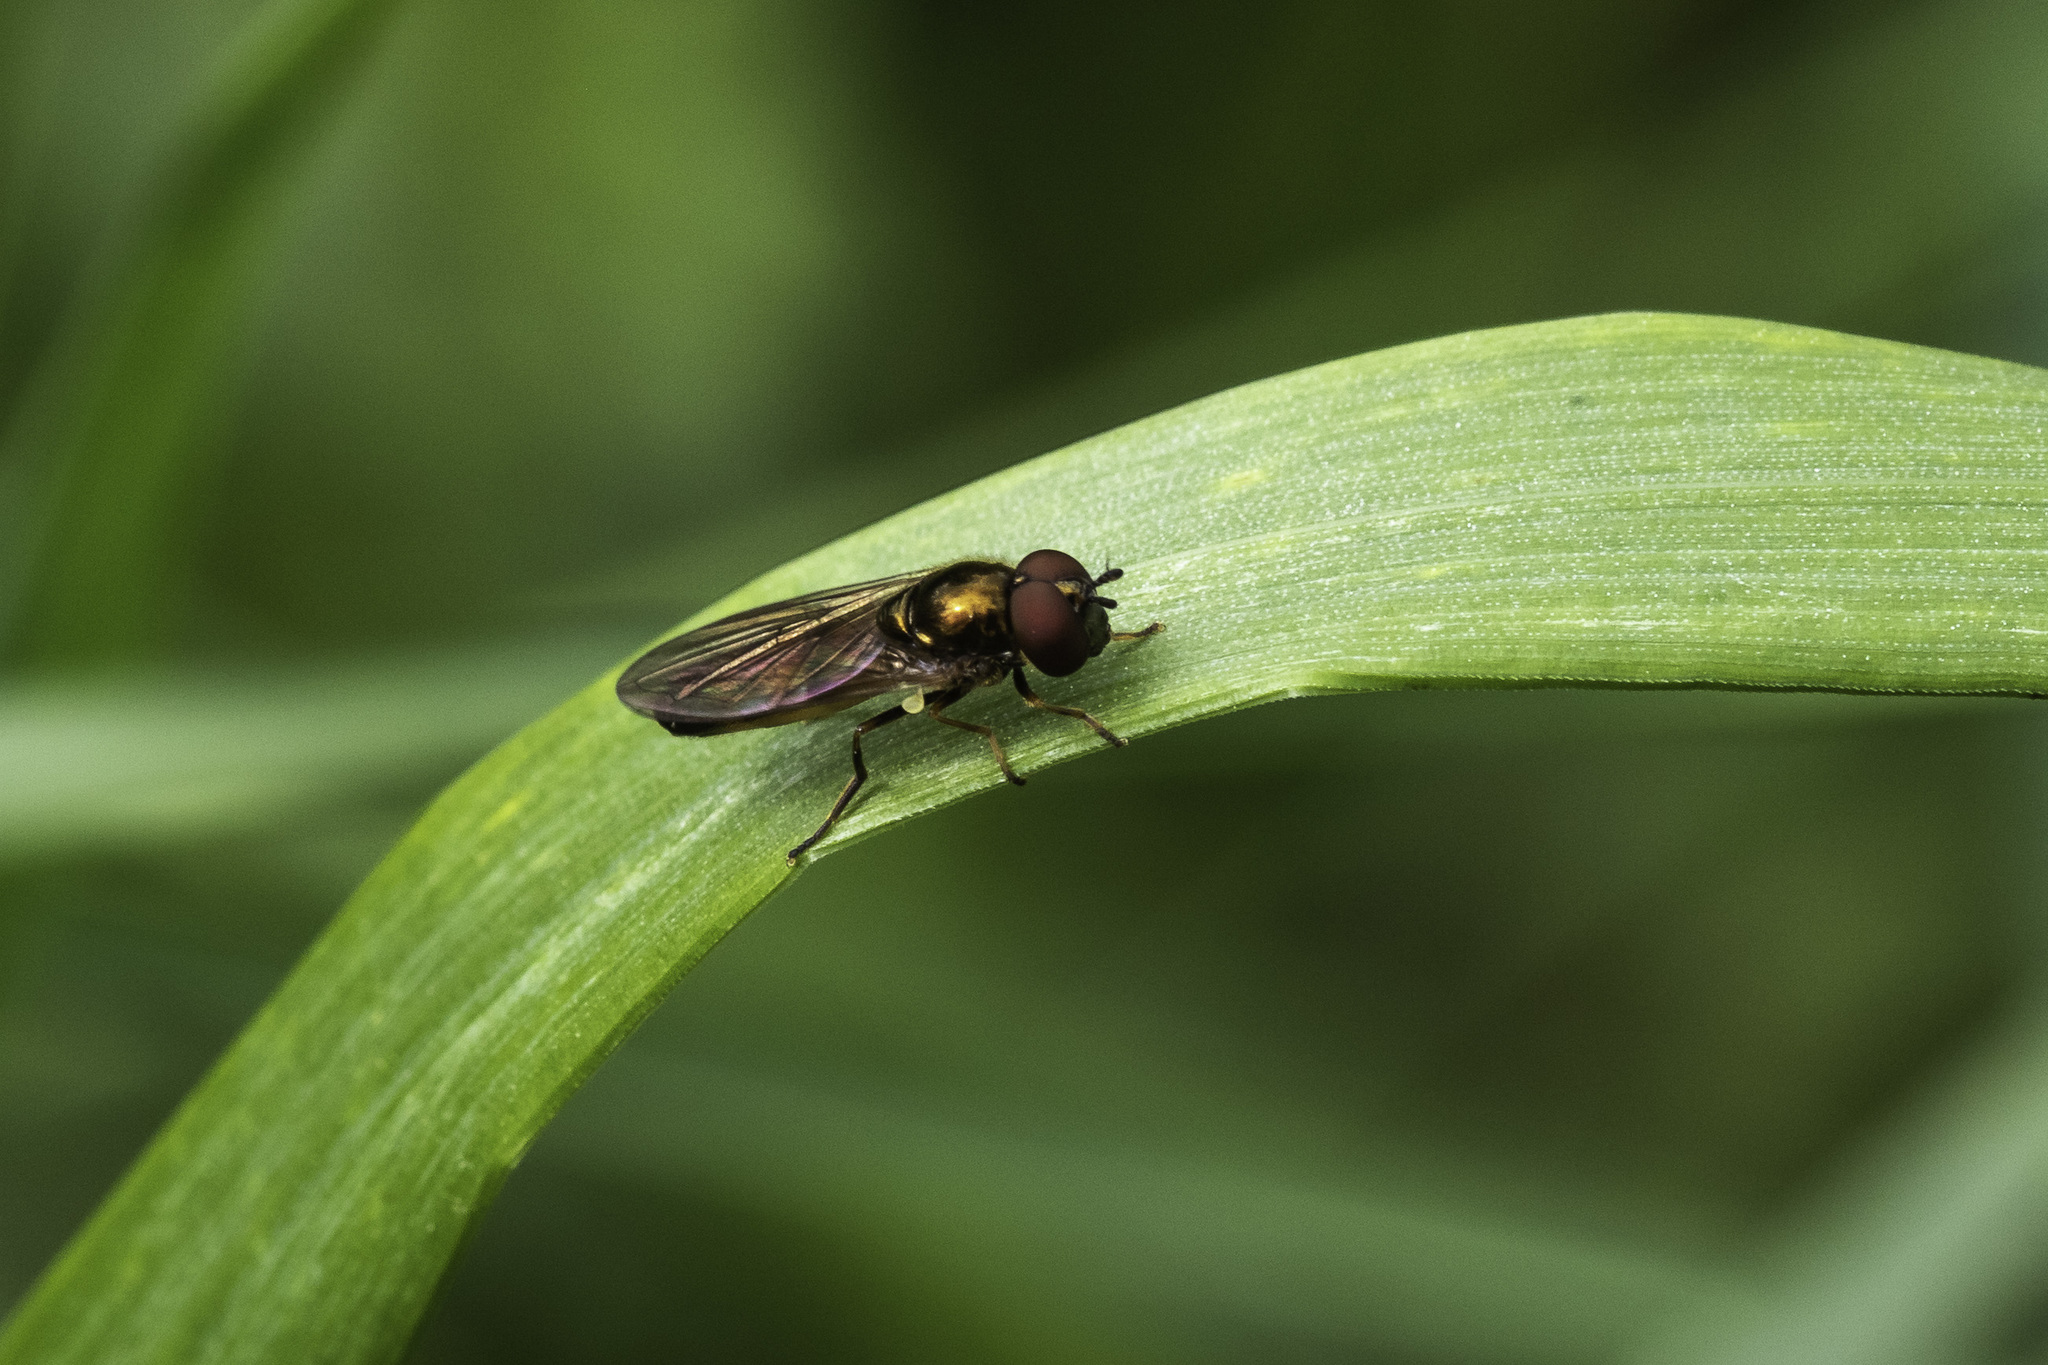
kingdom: Animalia
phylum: Arthropoda
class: Insecta
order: Diptera
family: Syrphidae
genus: Melanostoma
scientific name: Melanostoma mellina
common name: Hover fly
